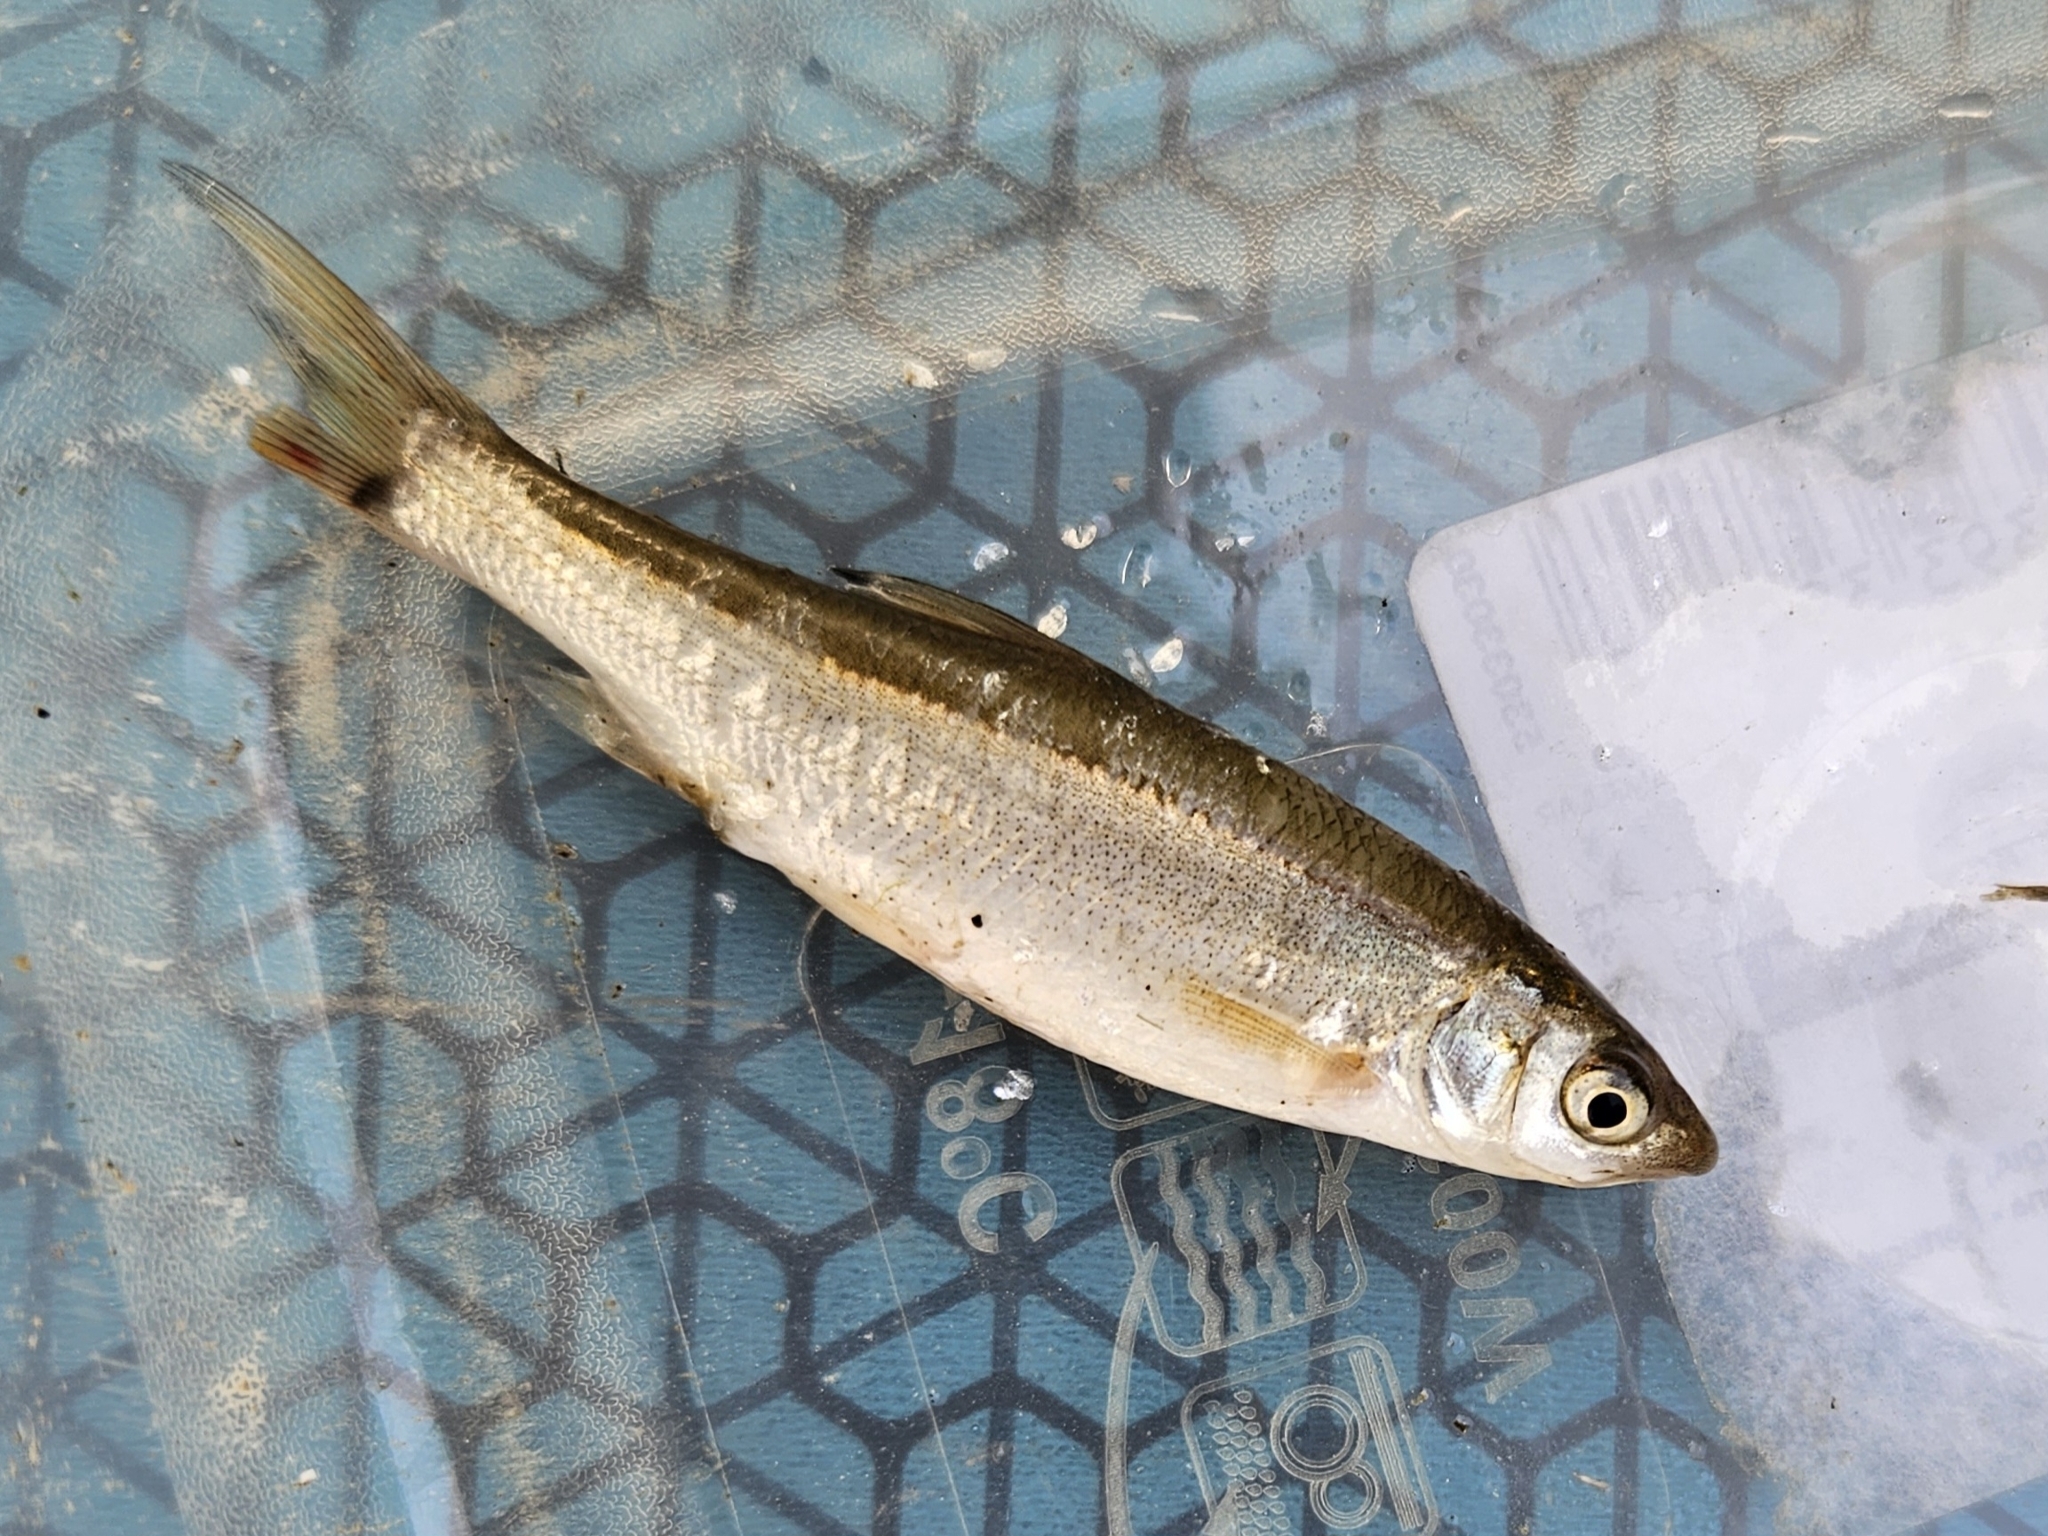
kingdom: Animalia
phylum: Chordata
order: Cypriniformes
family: Cyprinidae
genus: Chondrostoma
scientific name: Chondrostoma nasus
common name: Nase
